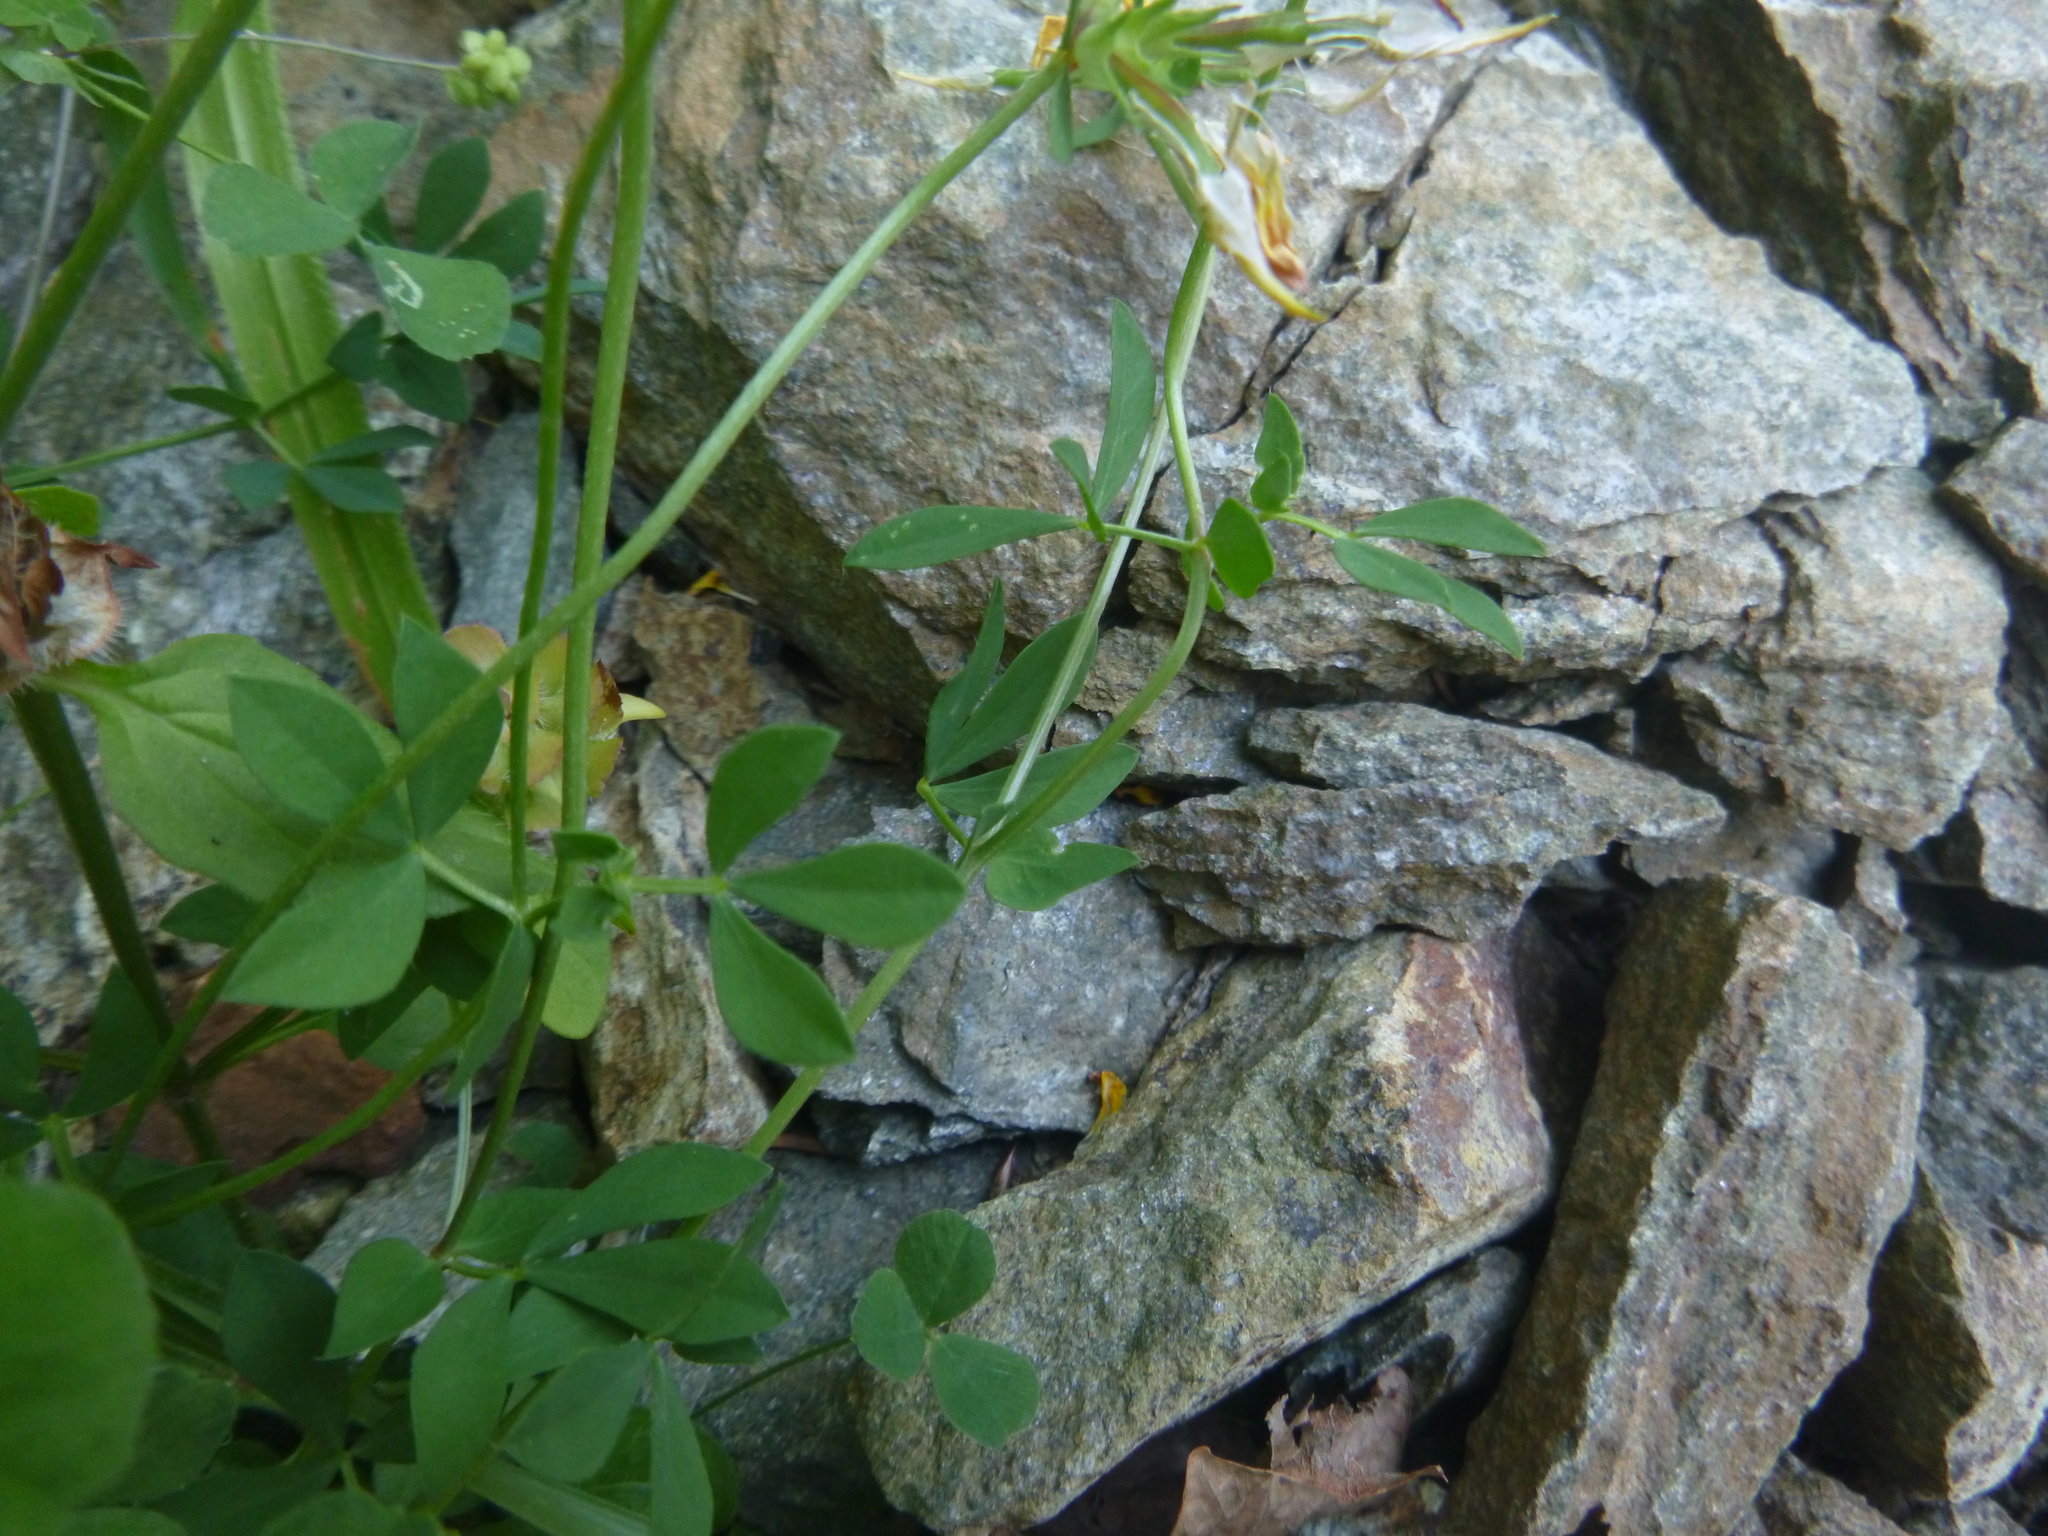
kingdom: Plantae
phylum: Tracheophyta
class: Magnoliopsida
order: Fabales
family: Fabaceae
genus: Lotus
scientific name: Lotus corniculatus
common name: Common bird's-foot-trefoil
